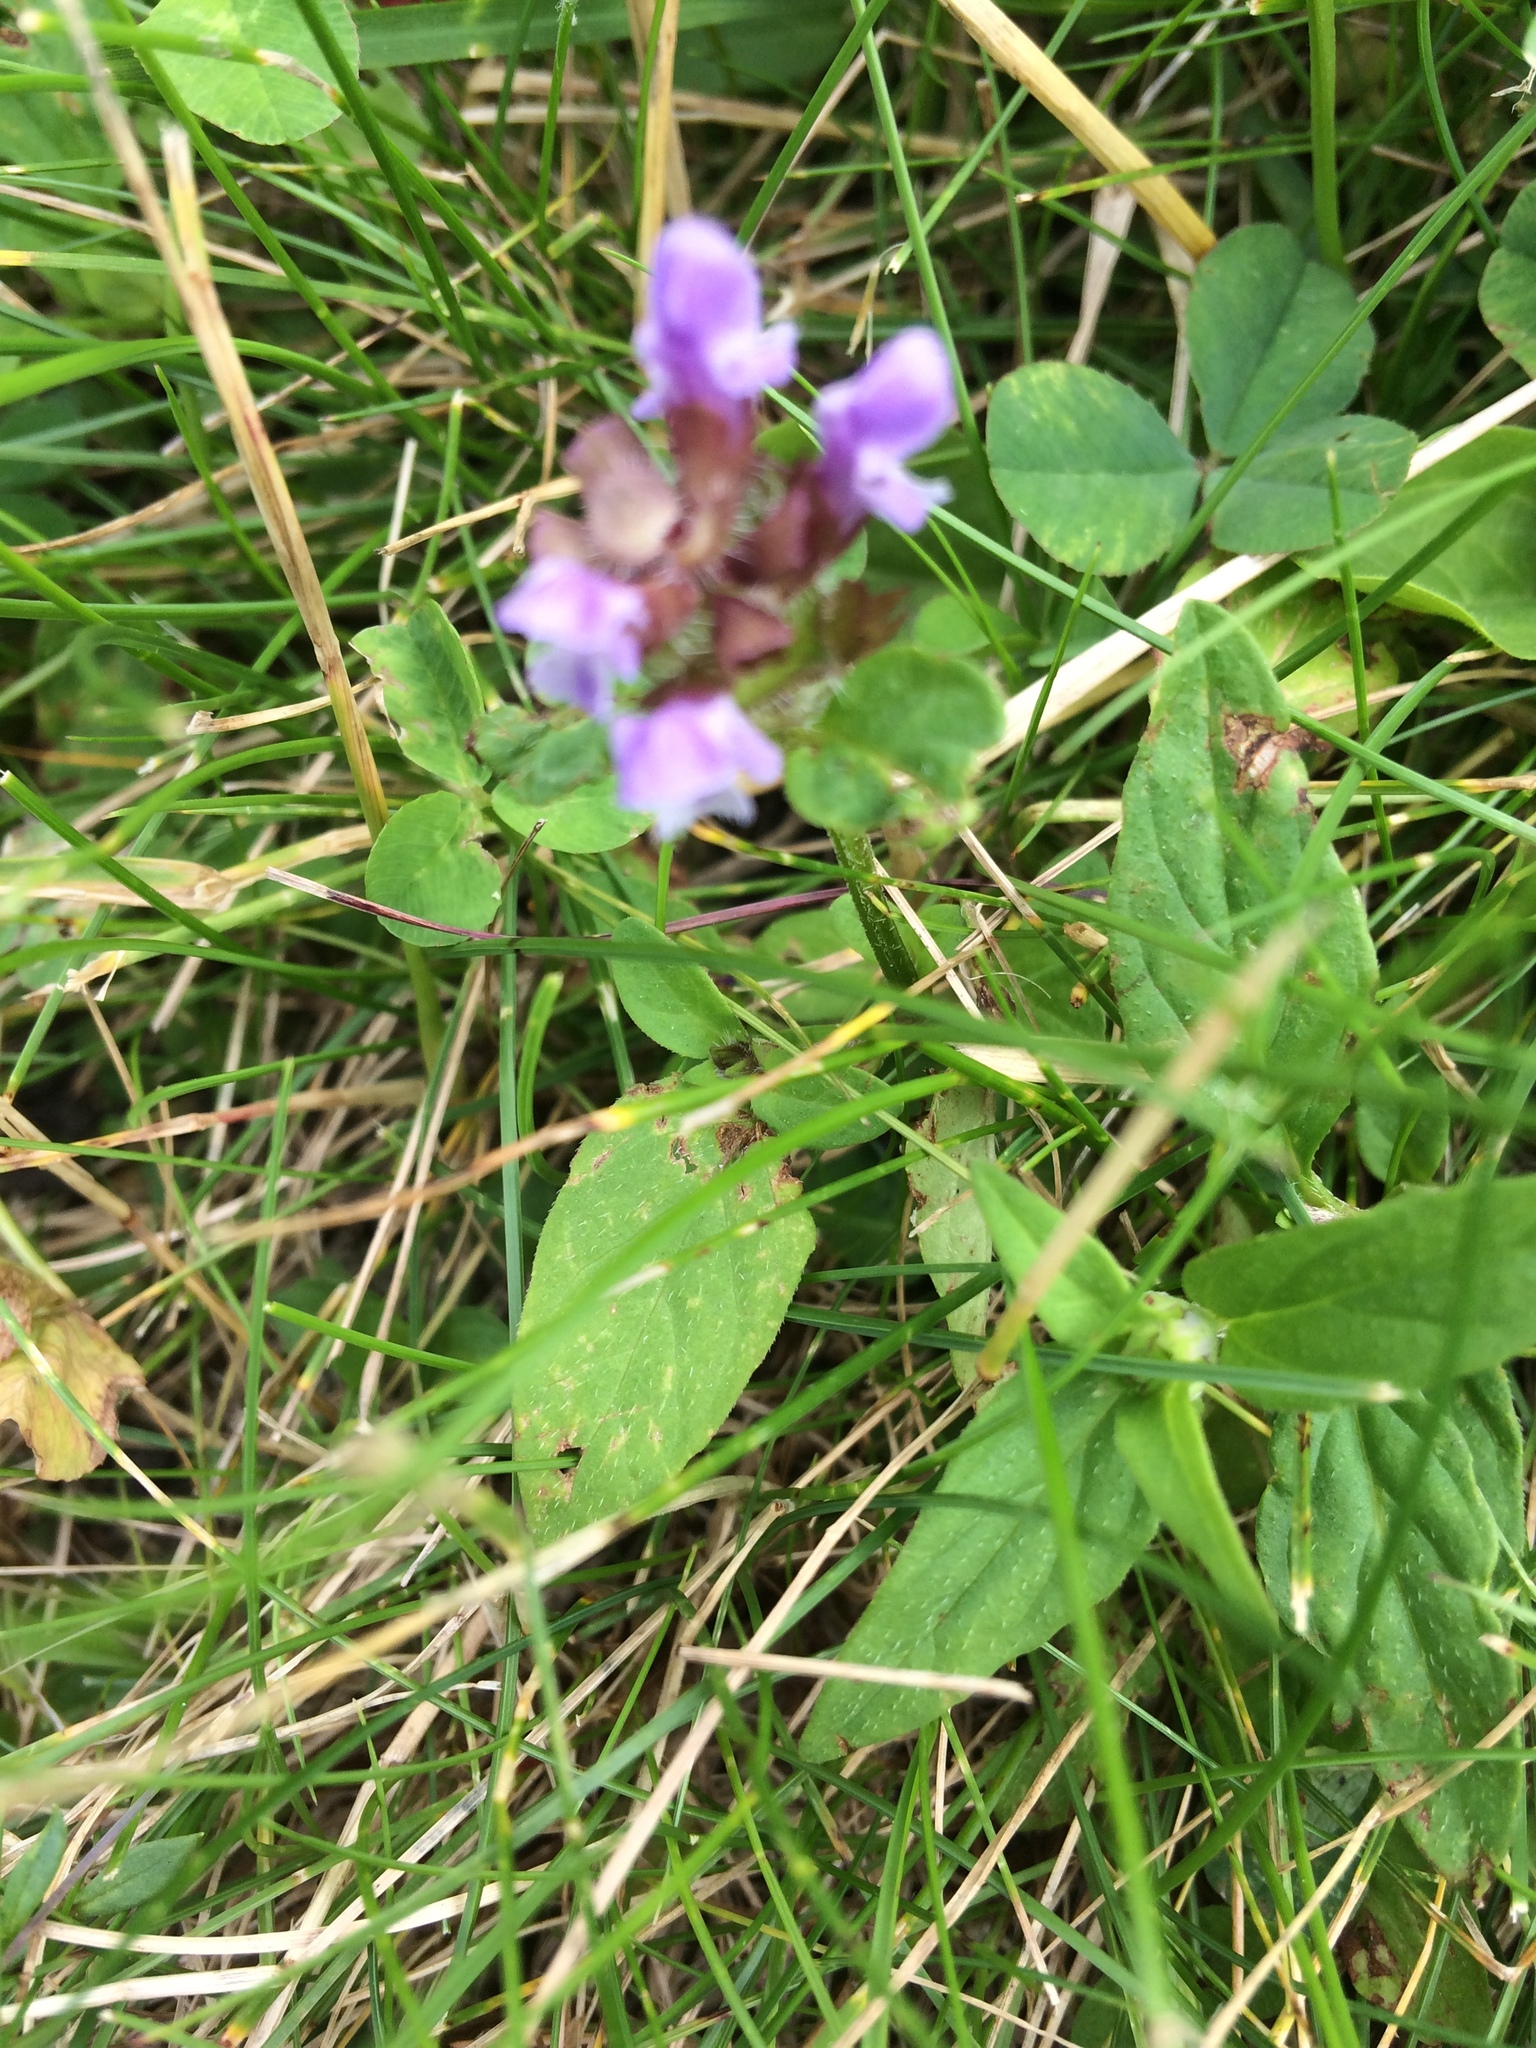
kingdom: Plantae
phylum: Tracheophyta
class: Magnoliopsida
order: Lamiales
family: Lamiaceae
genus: Prunella
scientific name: Prunella vulgaris
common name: Heal-all
